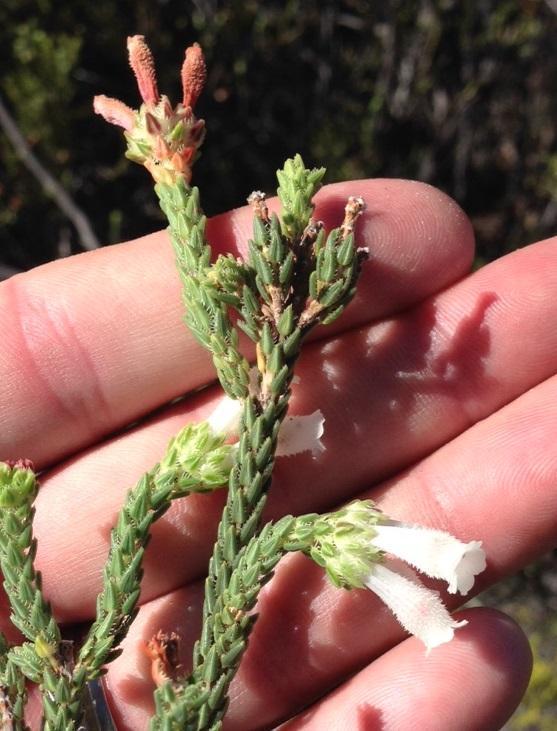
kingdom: Plantae
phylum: Tracheophyta
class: Magnoliopsida
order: Ericales
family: Ericaceae
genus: Erica
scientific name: Erica pectinifolia
